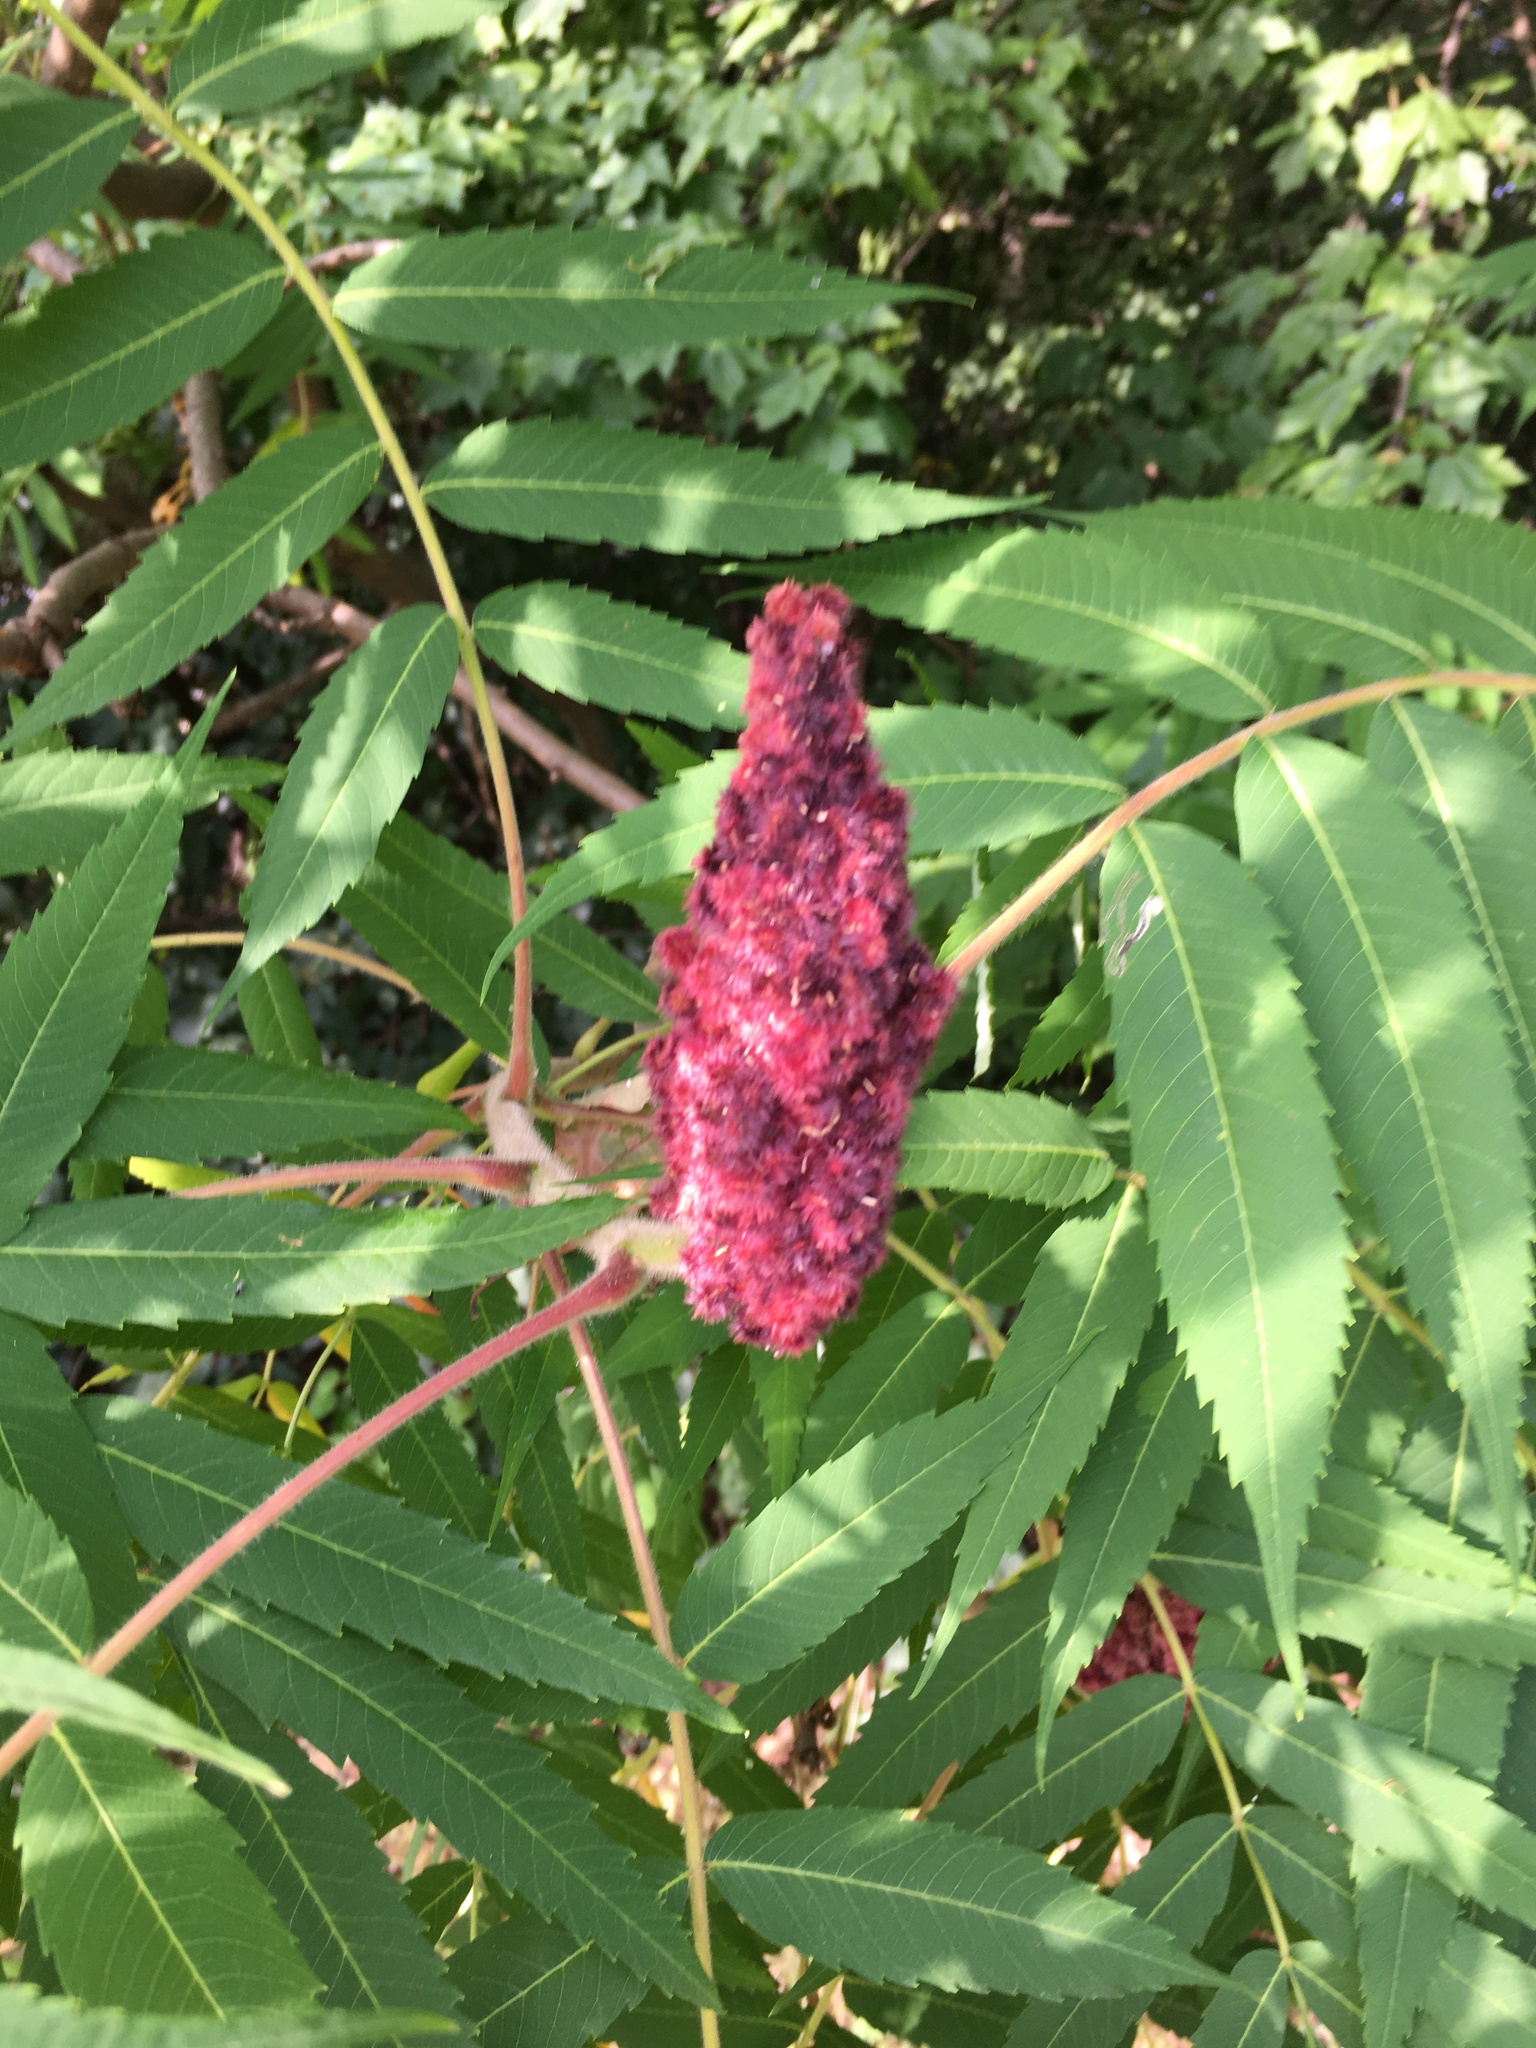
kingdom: Plantae
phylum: Tracheophyta
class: Magnoliopsida
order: Sapindales
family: Anacardiaceae
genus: Rhus
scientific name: Rhus typhina
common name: Staghorn sumac
